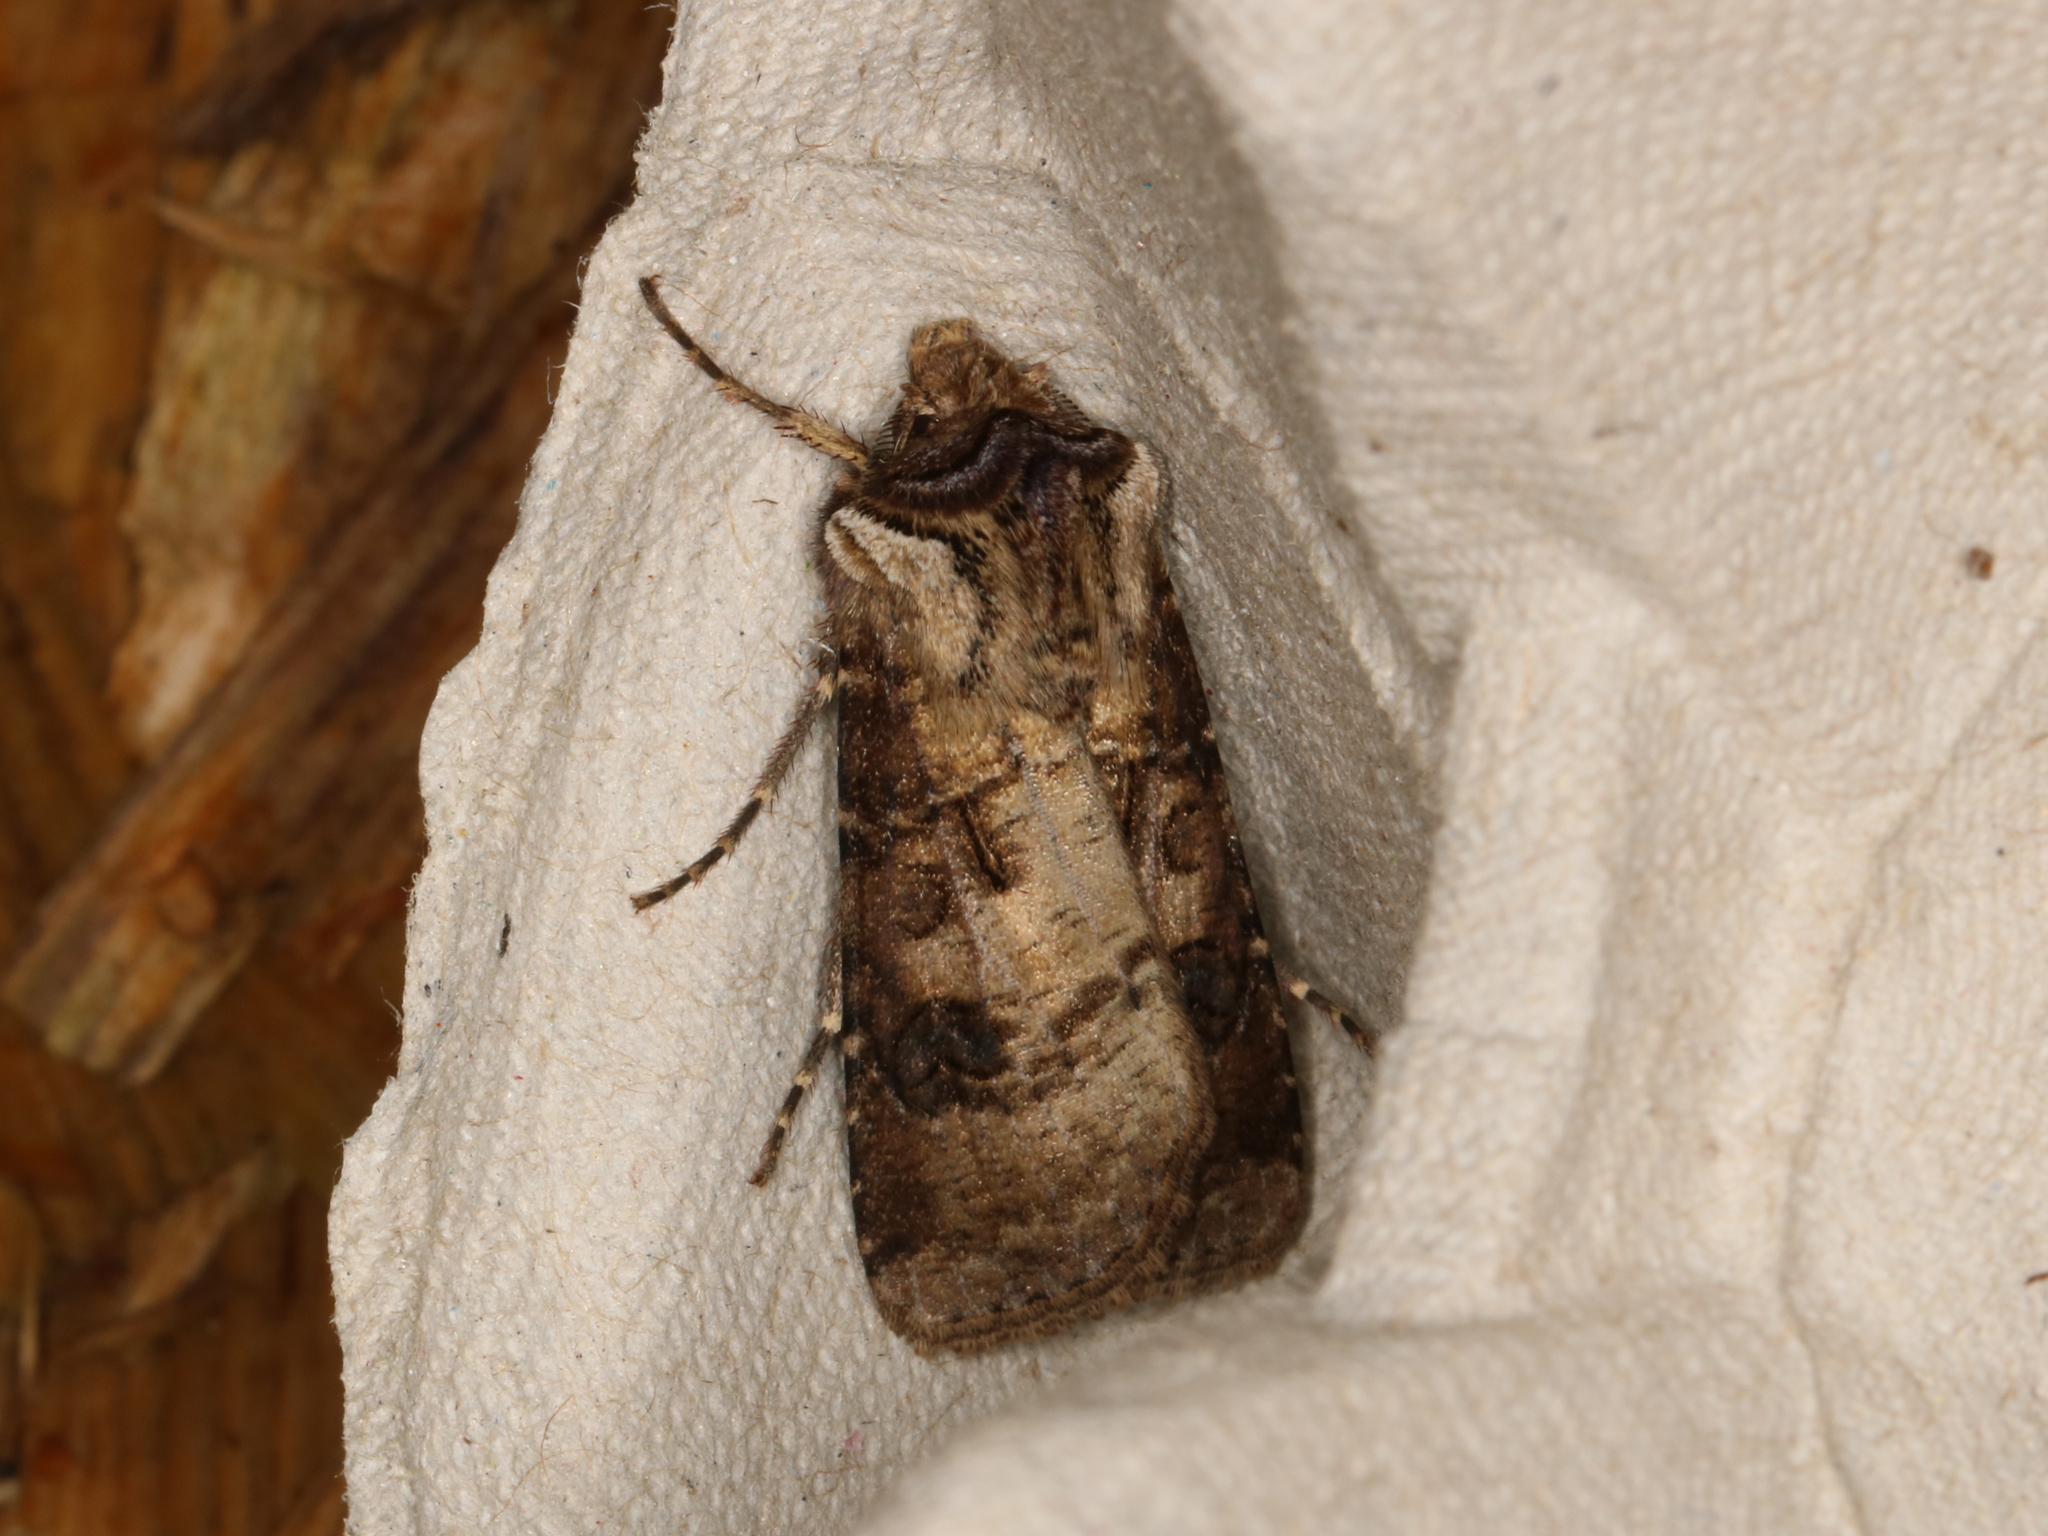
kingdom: Animalia
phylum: Arthropoda
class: Insecta
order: Lepidoptera
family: Noctuidae
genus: Agrotis
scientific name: Agrotis clavis
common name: Heart and club
